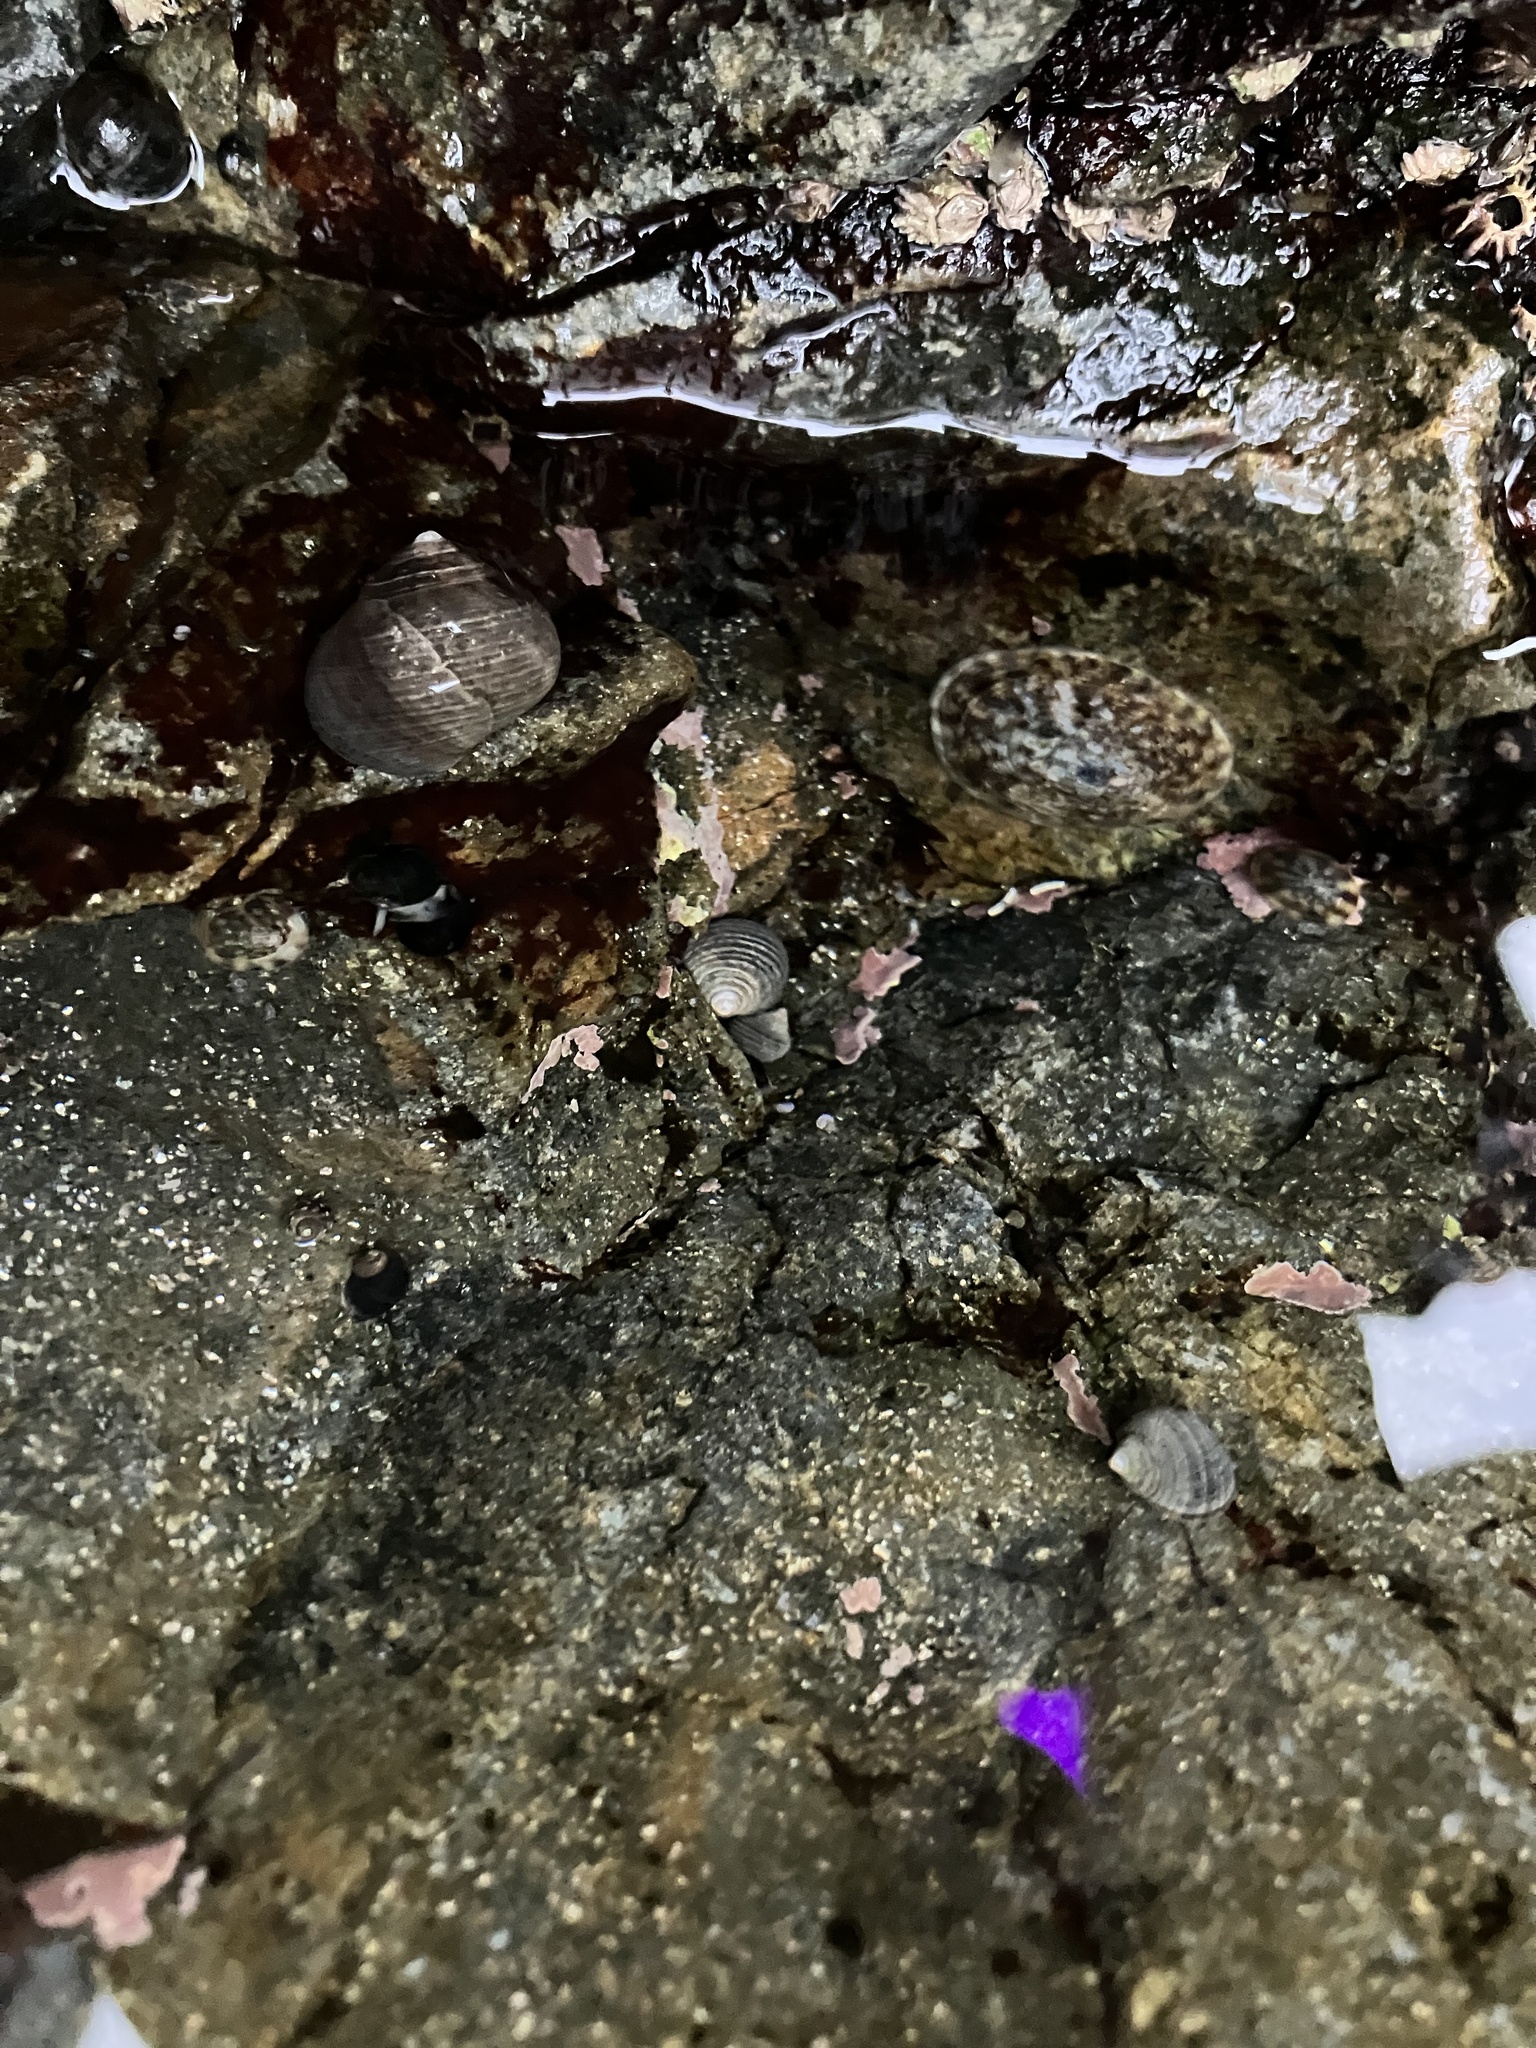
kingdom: Animalia
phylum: Mollusca
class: Gastropoda
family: Lottiidae
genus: Testudinalia
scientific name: Testudinalia testudinalis
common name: Common tortoiseshell limpet
